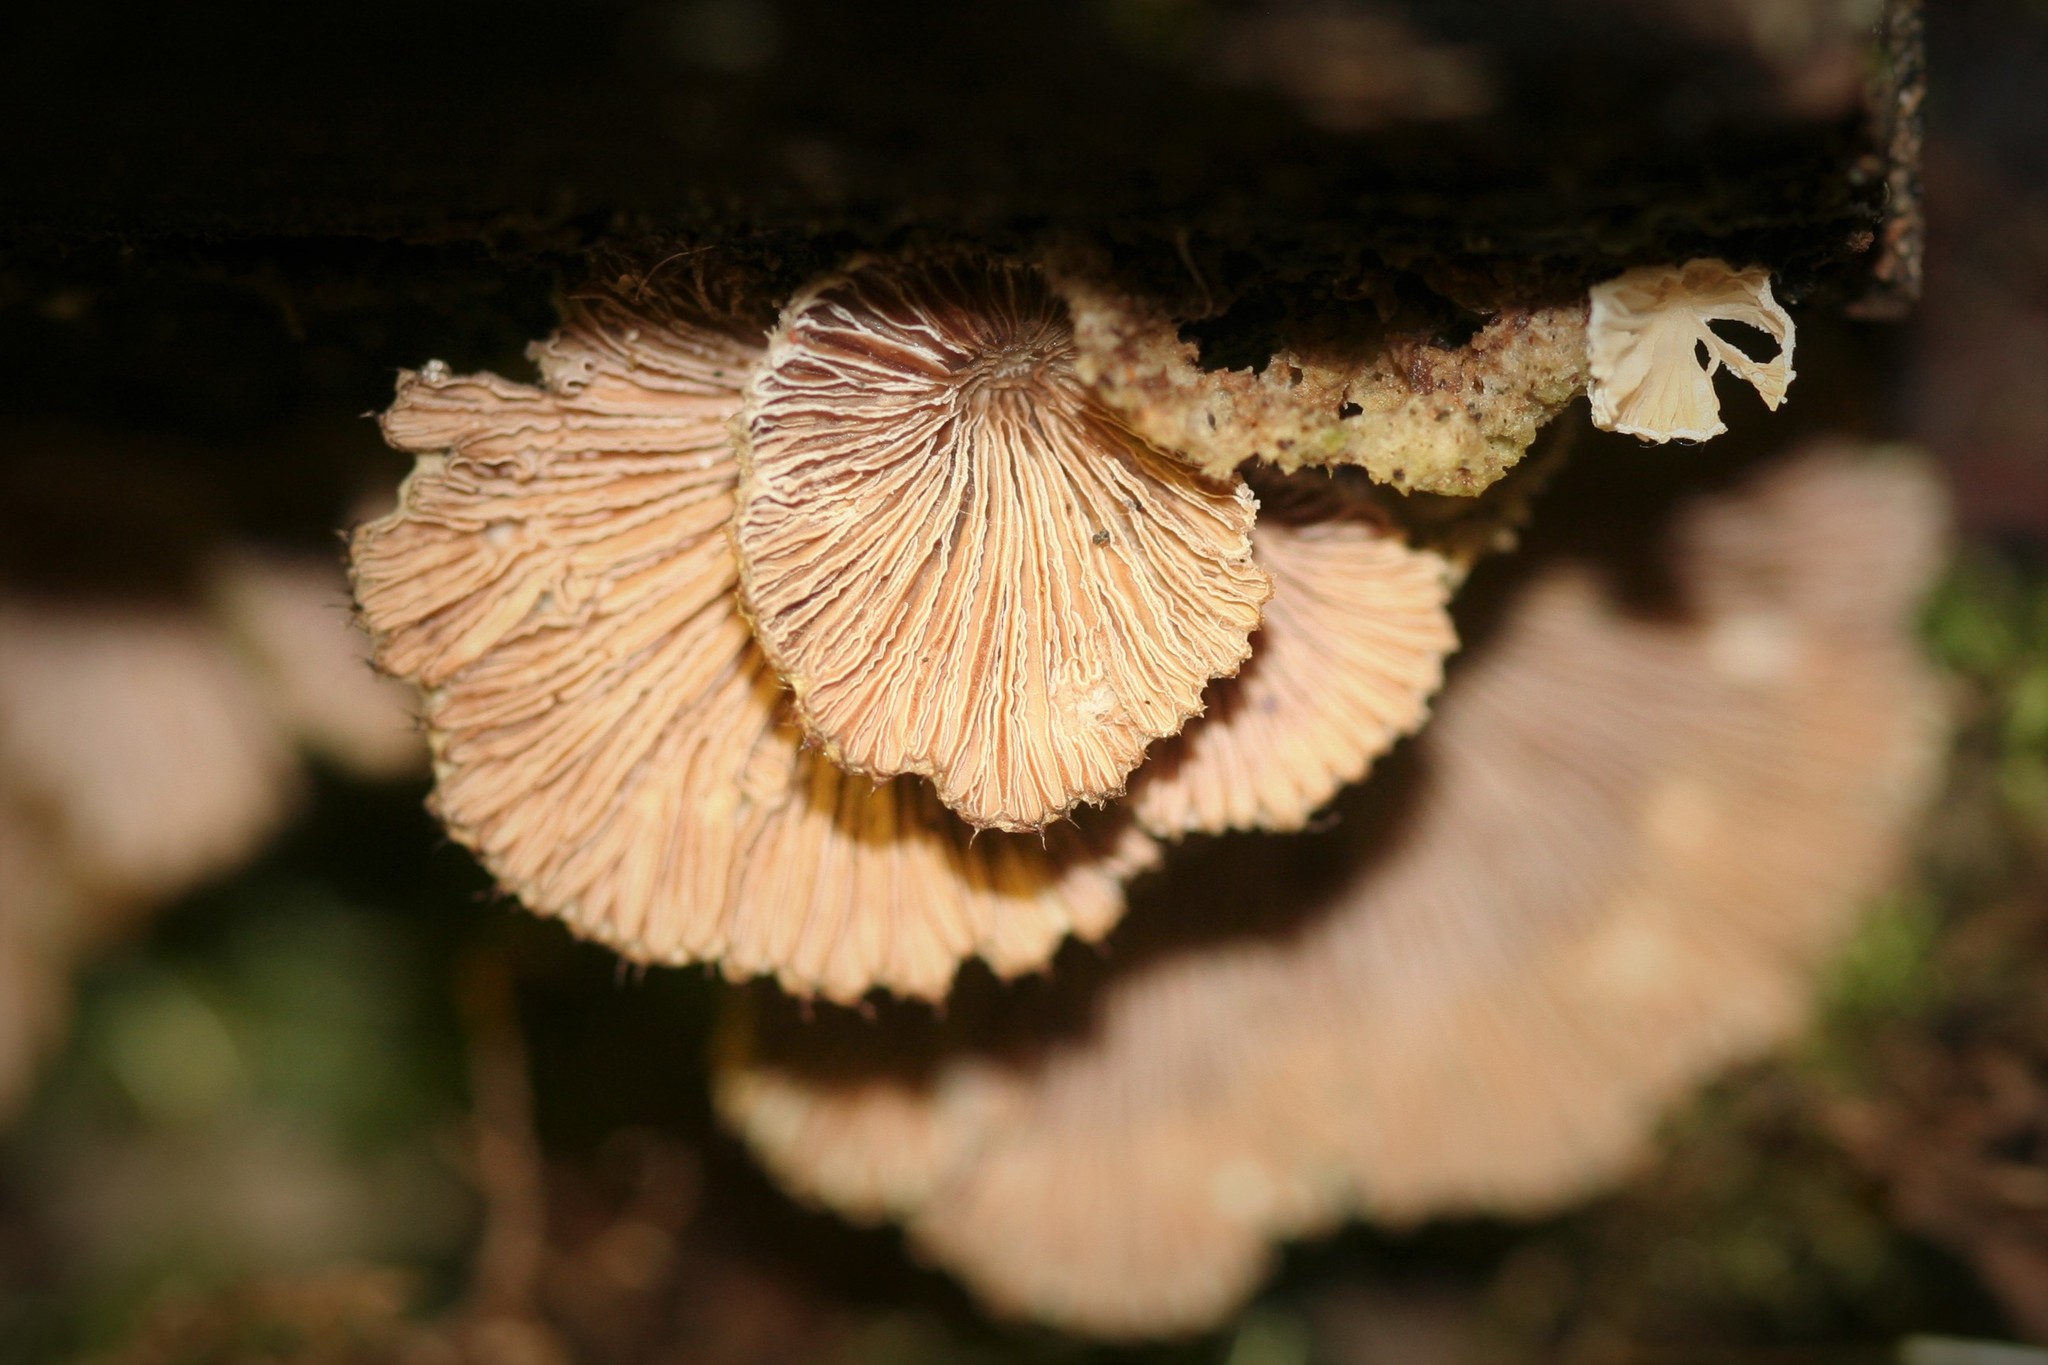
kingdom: Fungi
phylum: Basidiomycota
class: Agaricomycetes
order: Agaricales
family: Schizophyllaceae
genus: Schizophyllum
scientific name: Schizophyllum commune
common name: Common porecrust
